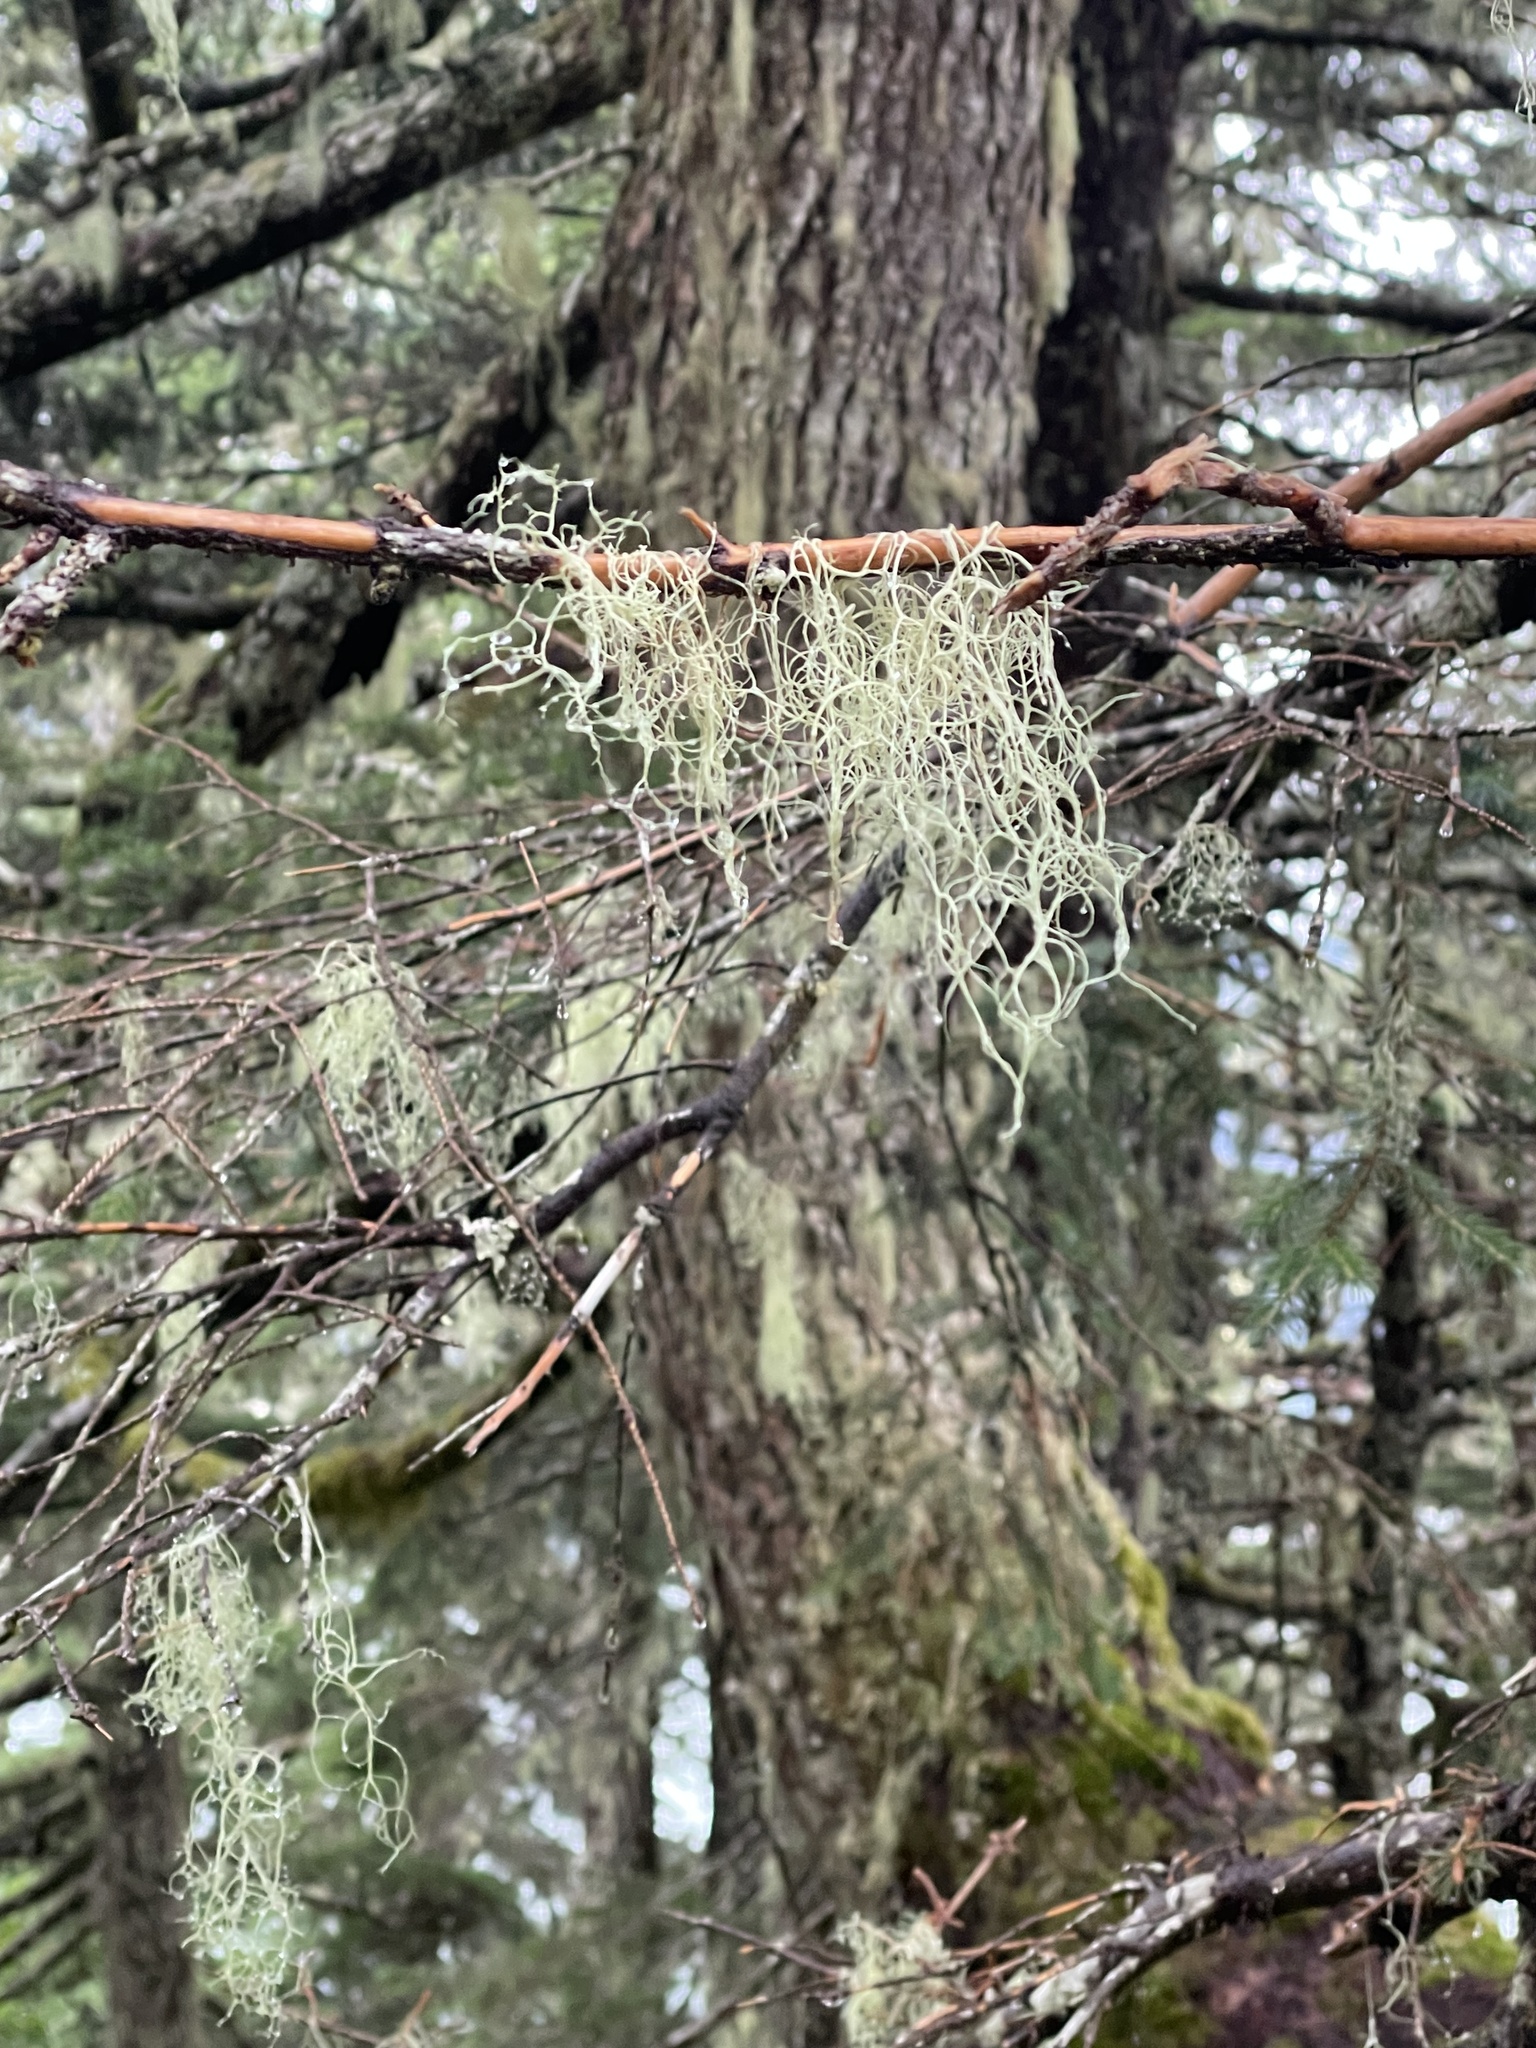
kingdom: Fungi
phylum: Ascomycota
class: Lecanoromycetes
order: Lecanorales
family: Parmeliaceae
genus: Alectoria
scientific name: Alectoria sarmentosa
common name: Witch's hair
